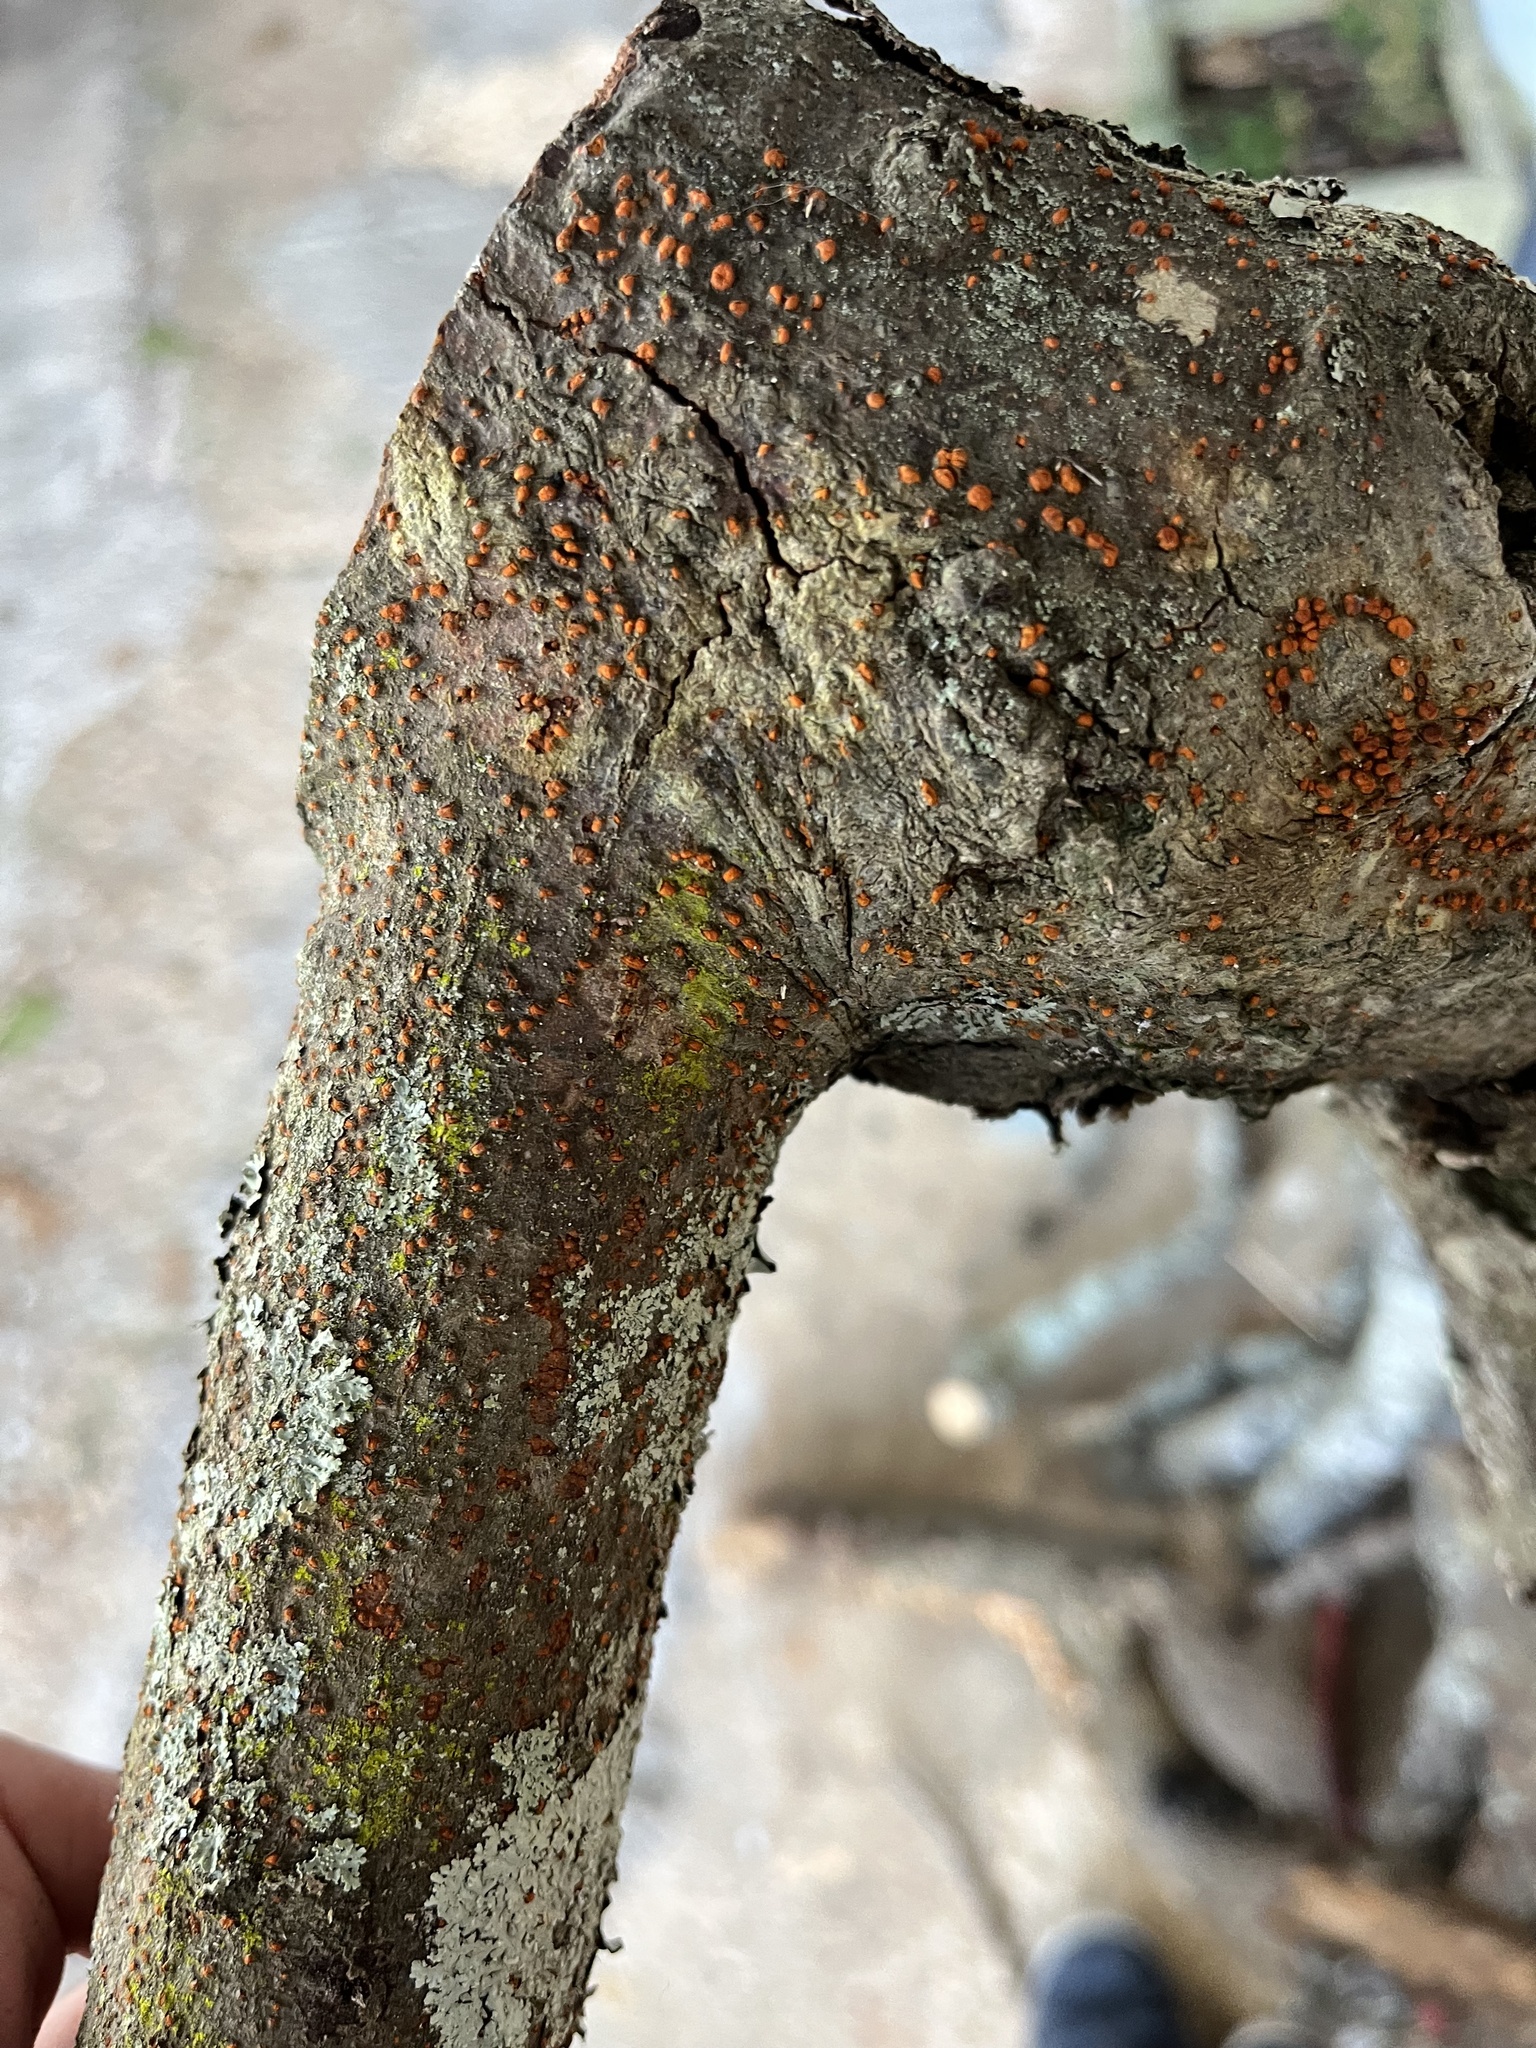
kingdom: Fungi
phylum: Ascomycota
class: Sordariomycetes
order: Diaporthales
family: Cryphonectriaceae
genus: Amphilogia
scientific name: Amphilogia gyrosa
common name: Orange hobnail canker
